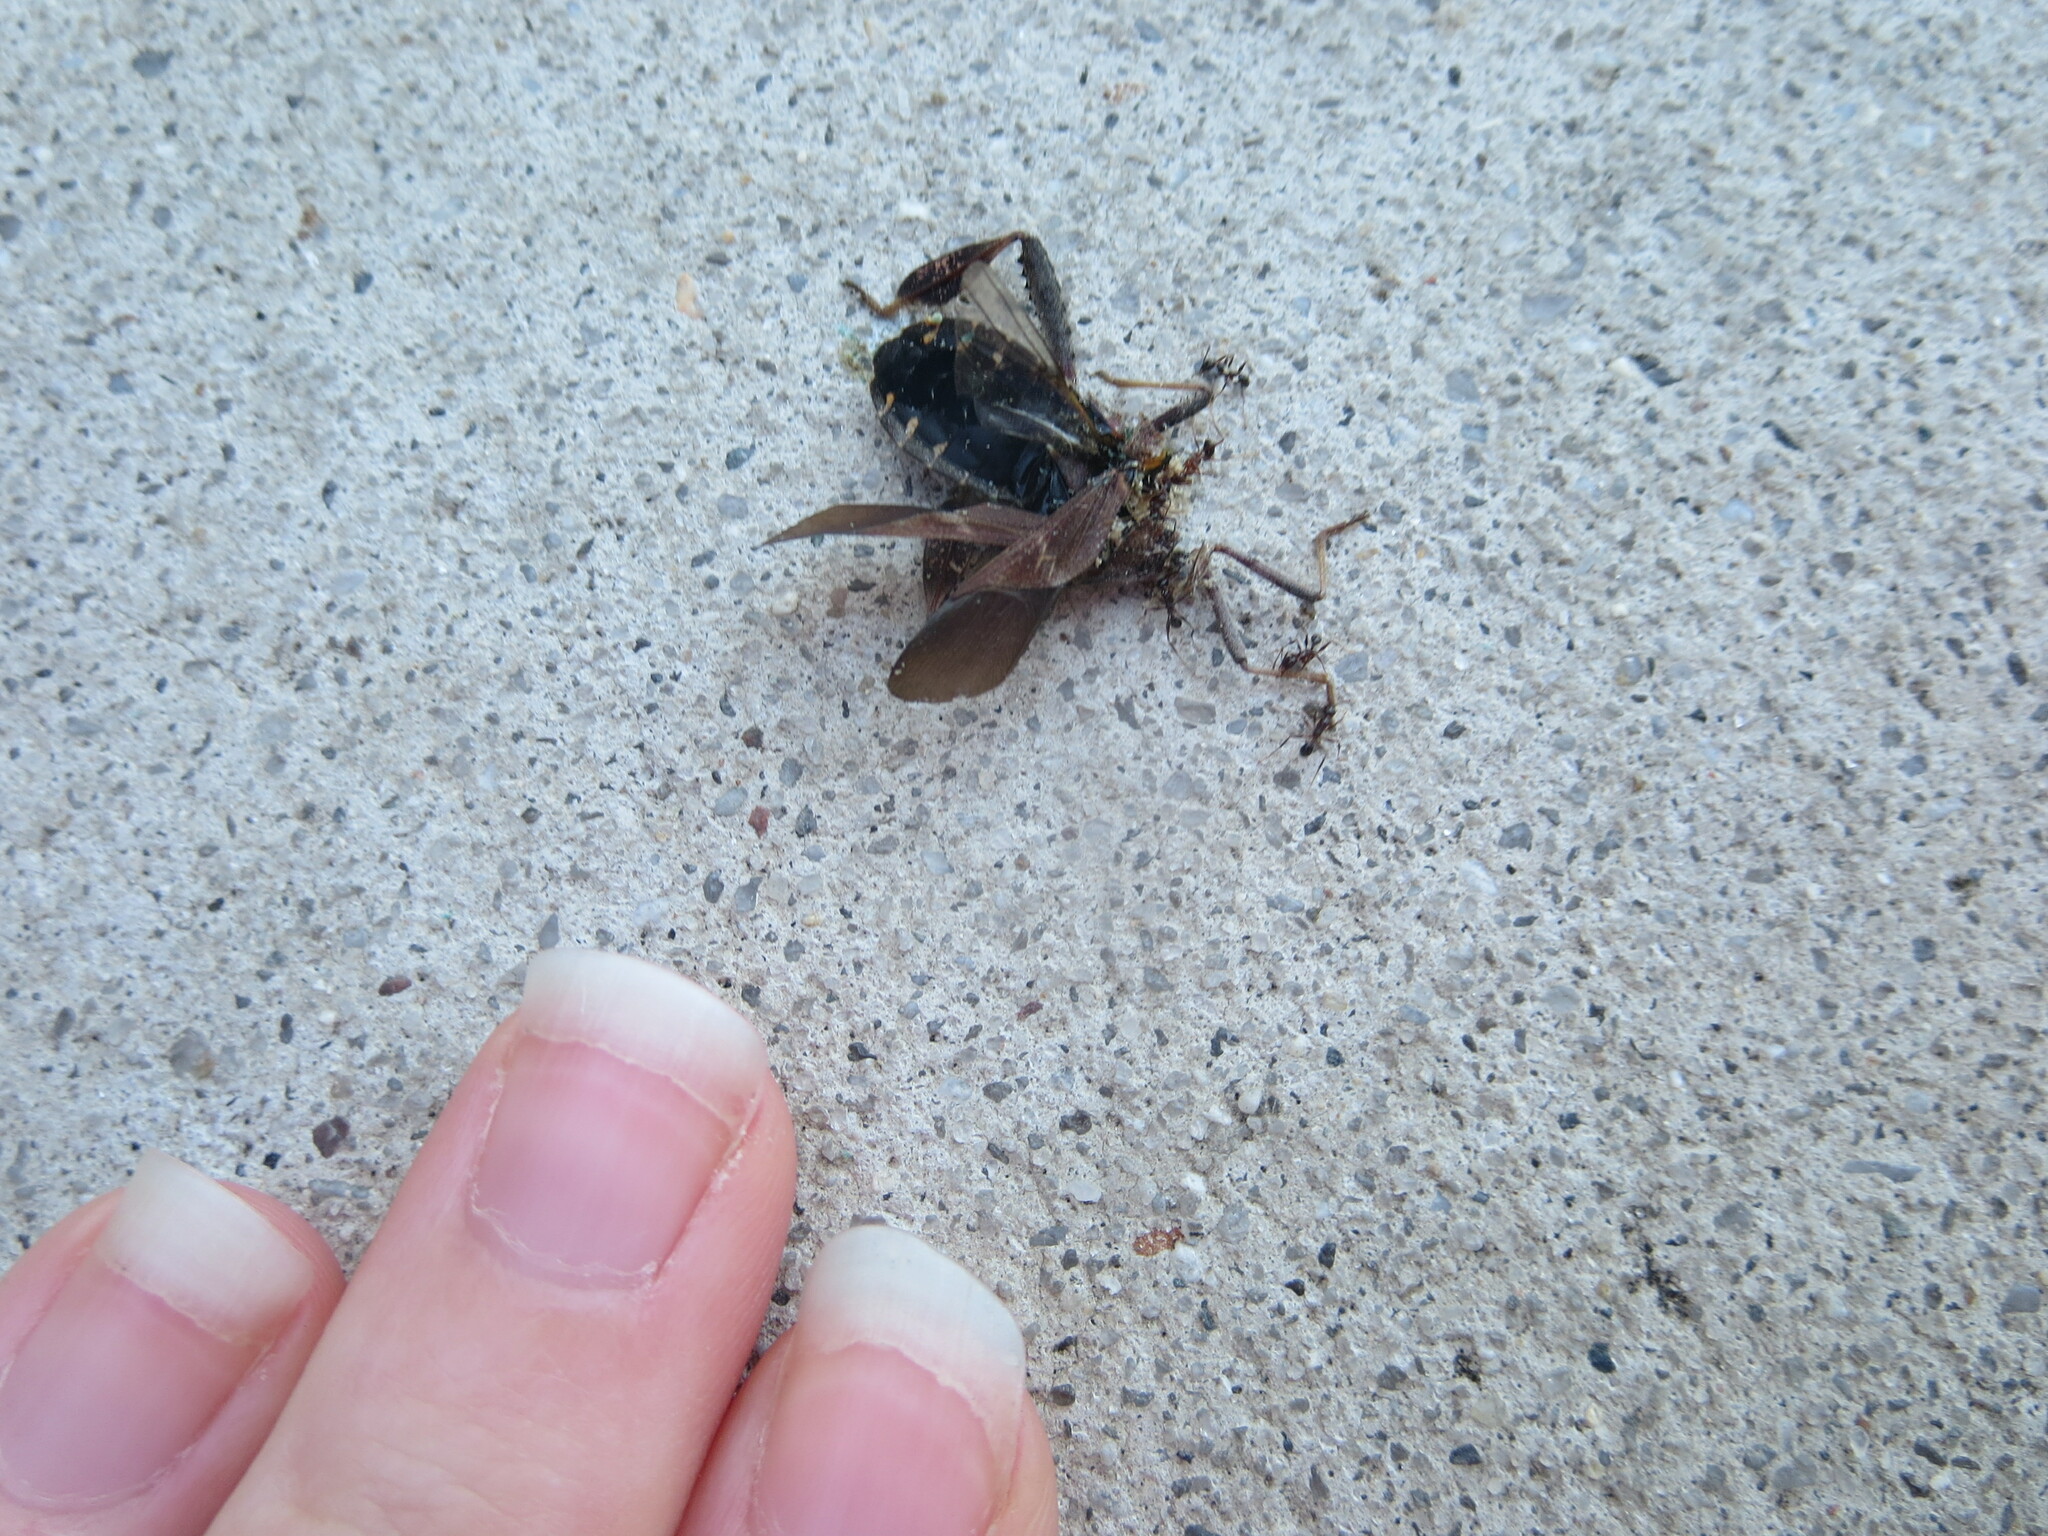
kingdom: Animalia
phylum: Arthropoda
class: Insecta
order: Hemiptera
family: Coreidae
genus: Leptoglossus
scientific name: Leptoglossus corculus
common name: Southern pine seed bug
